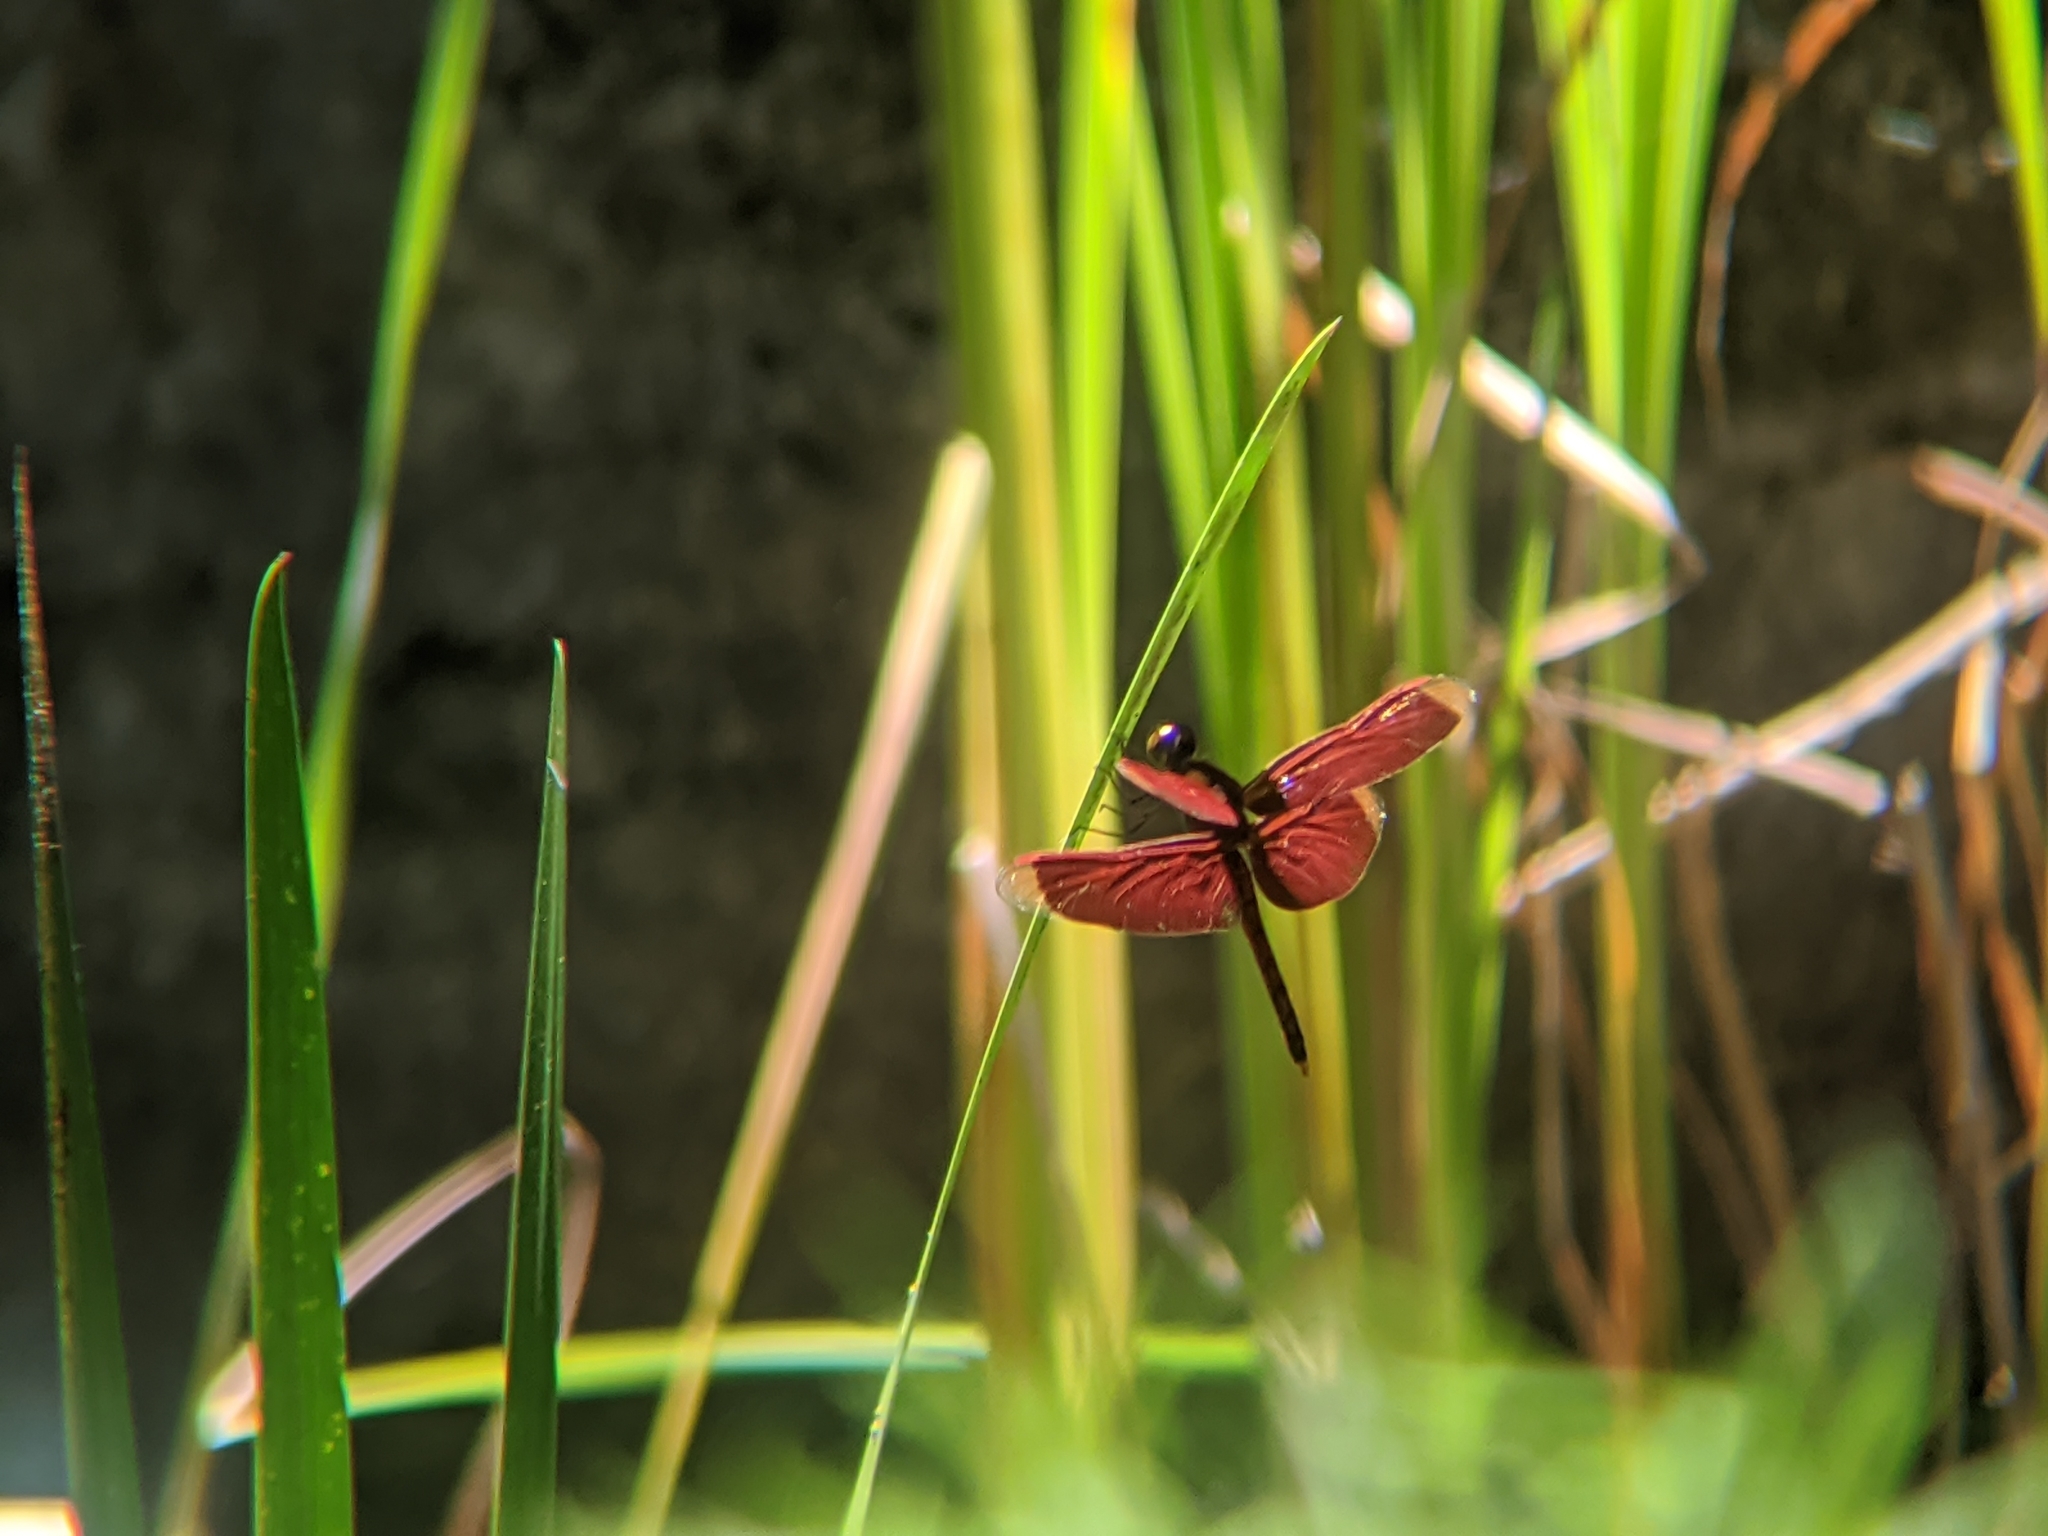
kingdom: Animalia
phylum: Arthropoda
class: Insecta
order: Odonata
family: Libellulidae
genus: Neurothemis
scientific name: Neurothemis taiwanensis
